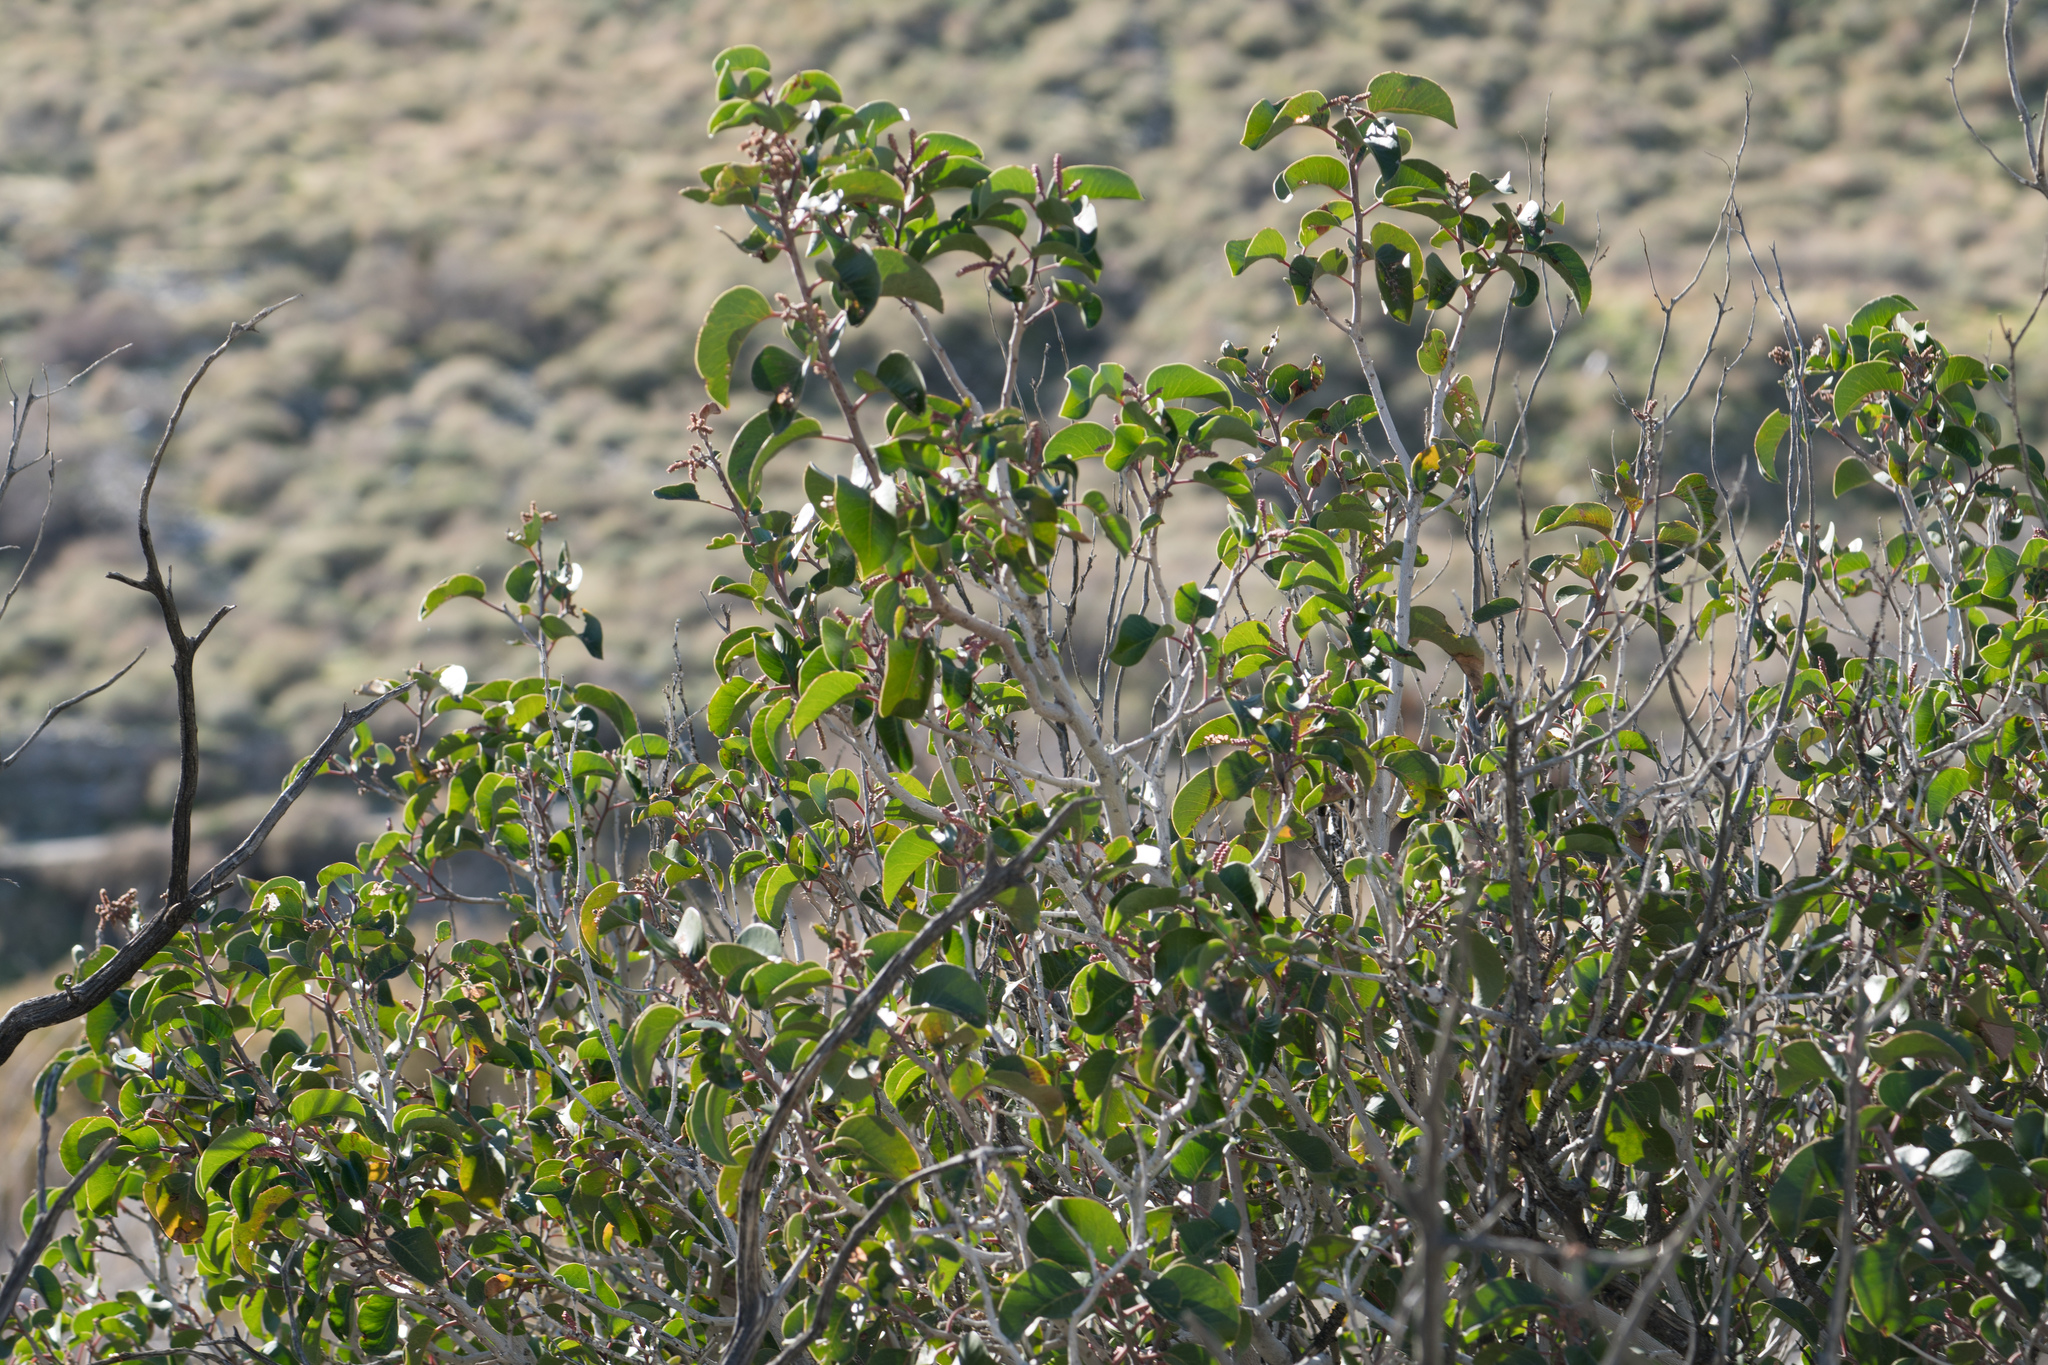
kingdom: Plantae
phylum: Tracheophyta
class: Magnoliopsida
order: Sapindales
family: Anacardiaceae
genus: Rhus
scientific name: Rhus ovata
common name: Sugar sumac
